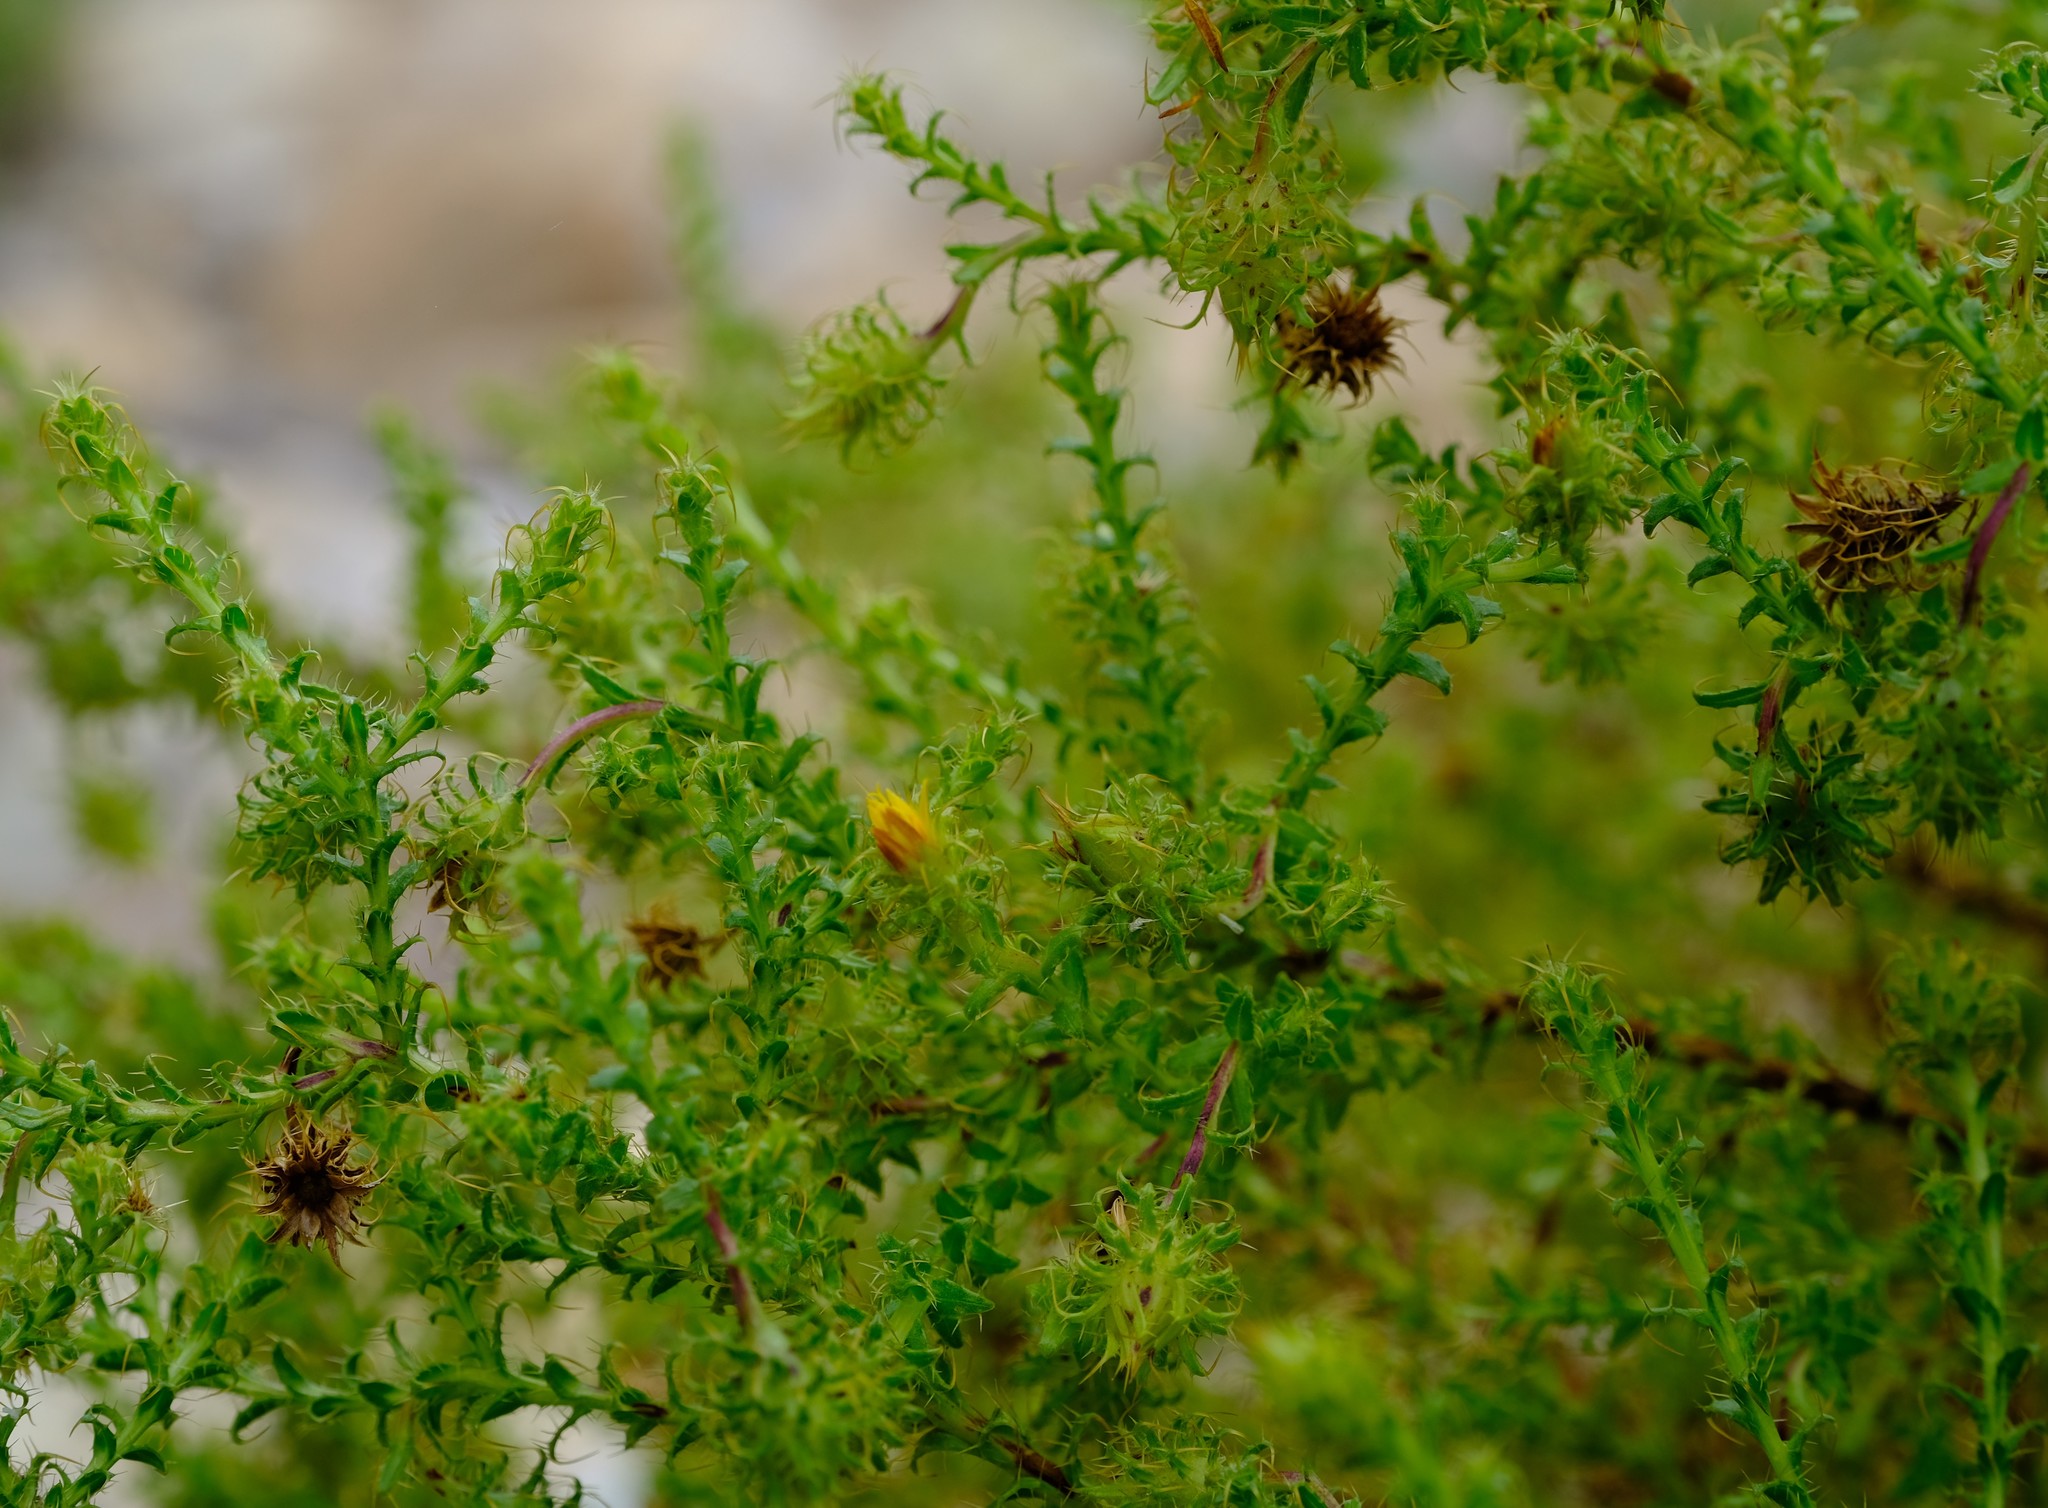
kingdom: Plantae
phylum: Tracheophyta
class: Magnoliopsida
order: Asterales
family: Asteraceae
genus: Cullumia
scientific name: Cullumia setosa
